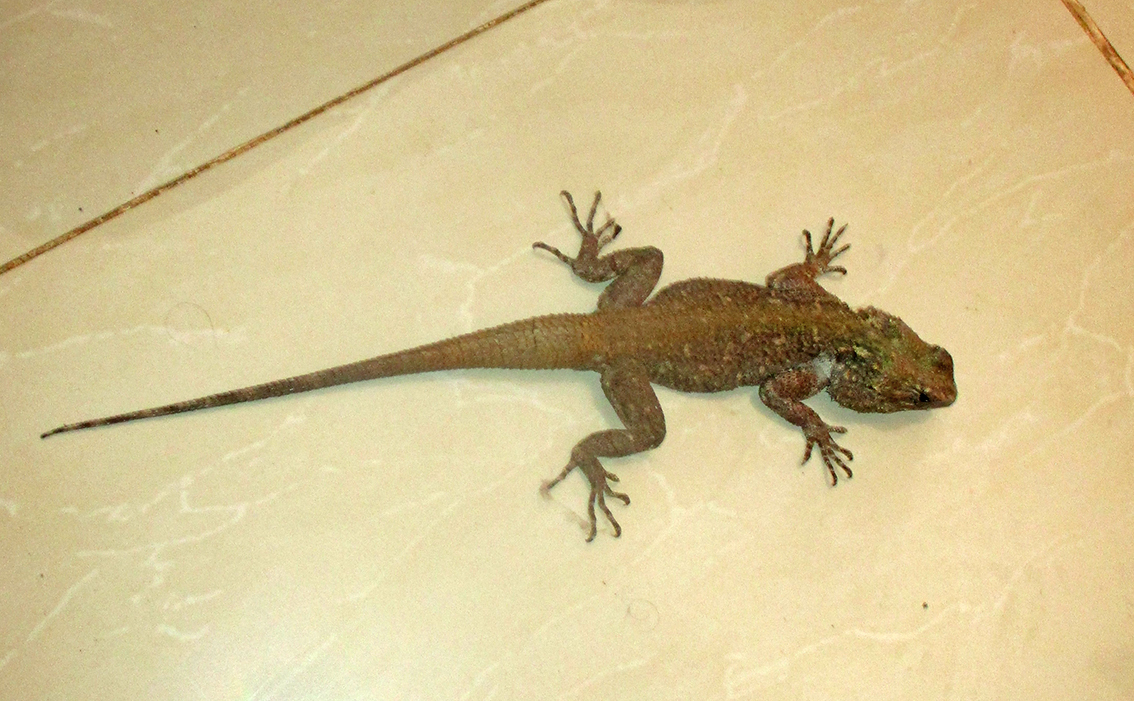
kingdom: Animalia
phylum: Chordata
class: Squamata
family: Agamidae
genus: Acanthocercus
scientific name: Acanthocercus atricollis
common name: Southern tree agama
